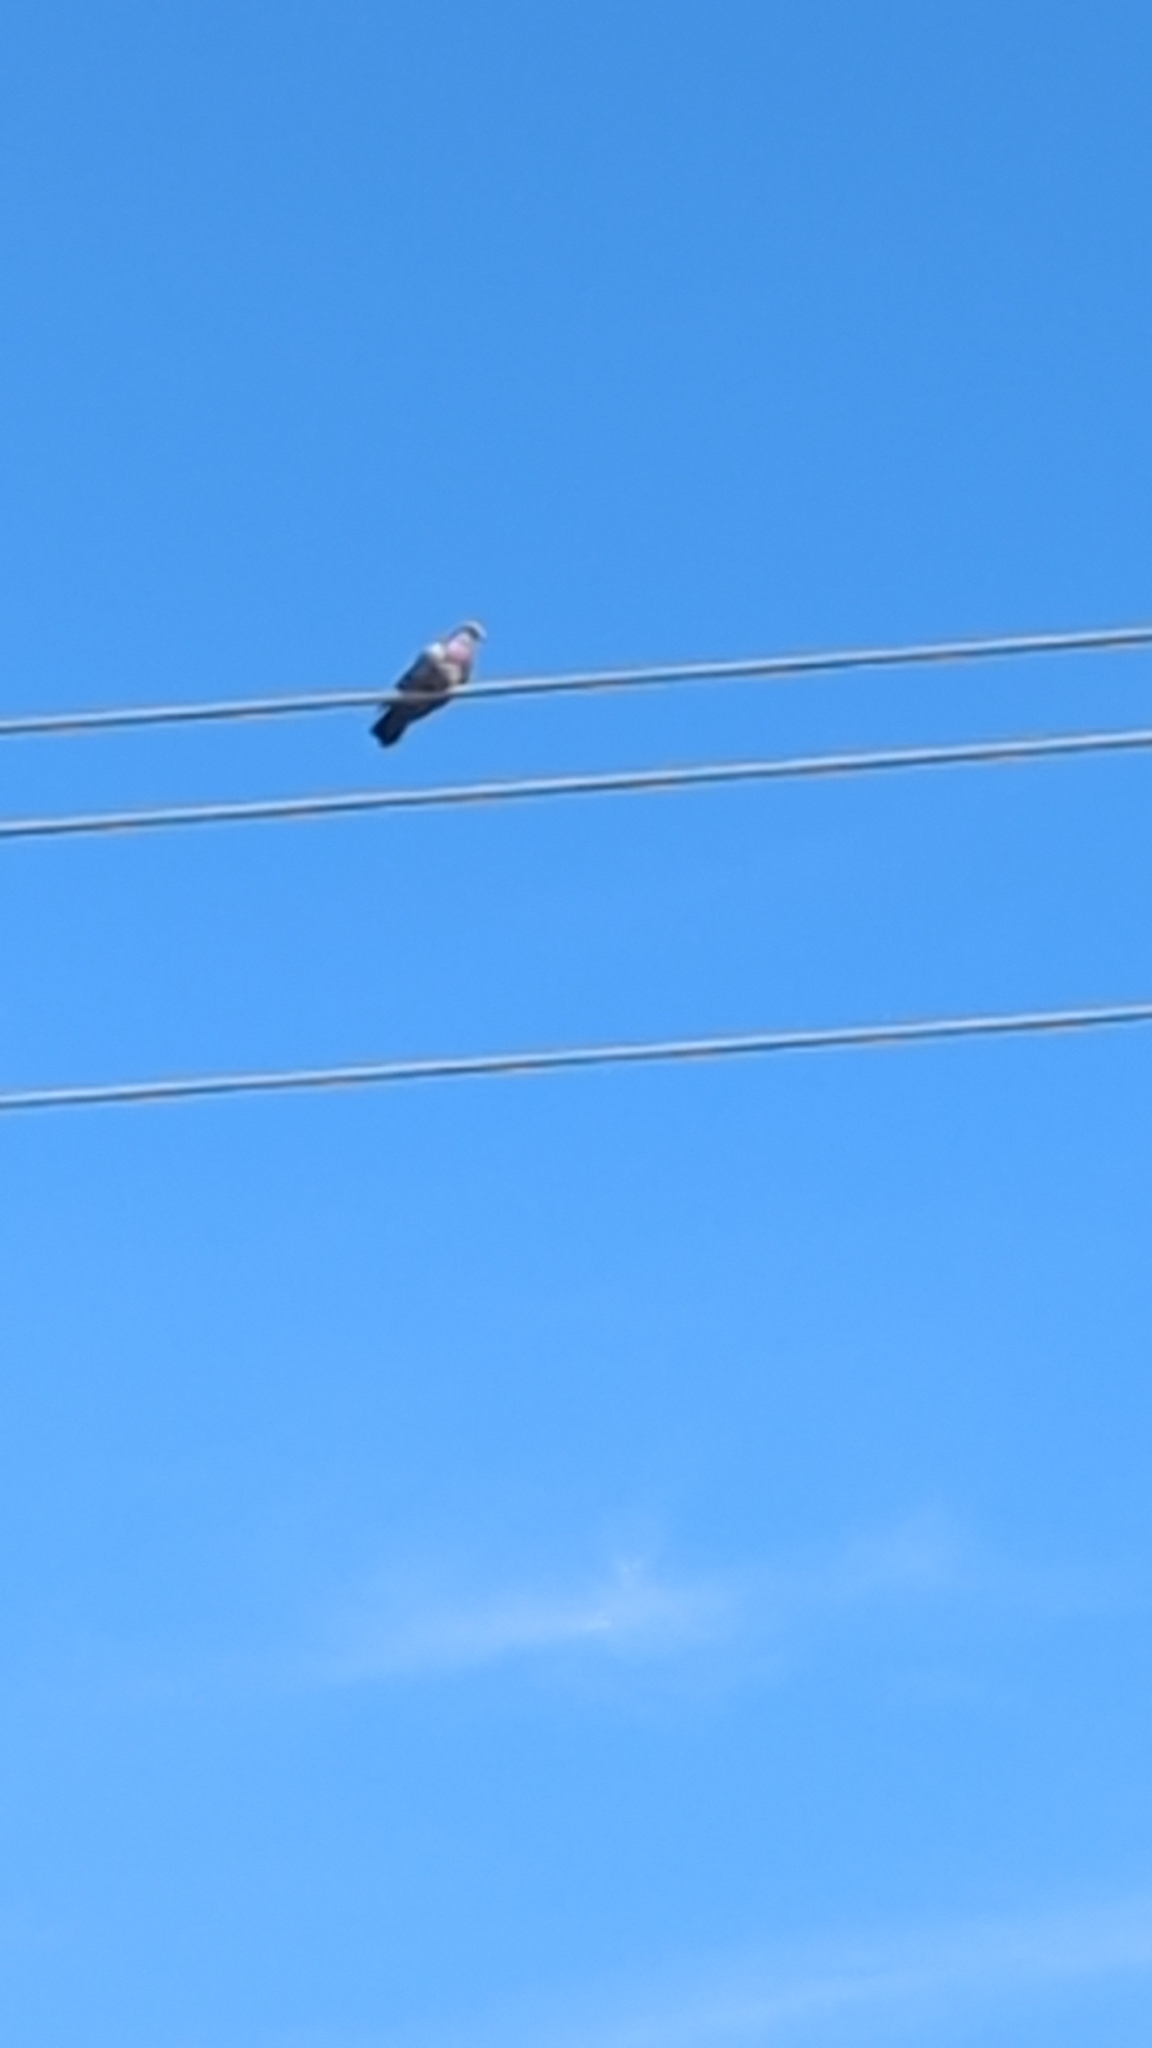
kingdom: Animalia
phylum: Chordata
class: Aves
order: Columbiformes
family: Columbidae
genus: Columba
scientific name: Columba livia
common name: Rock pigeon
